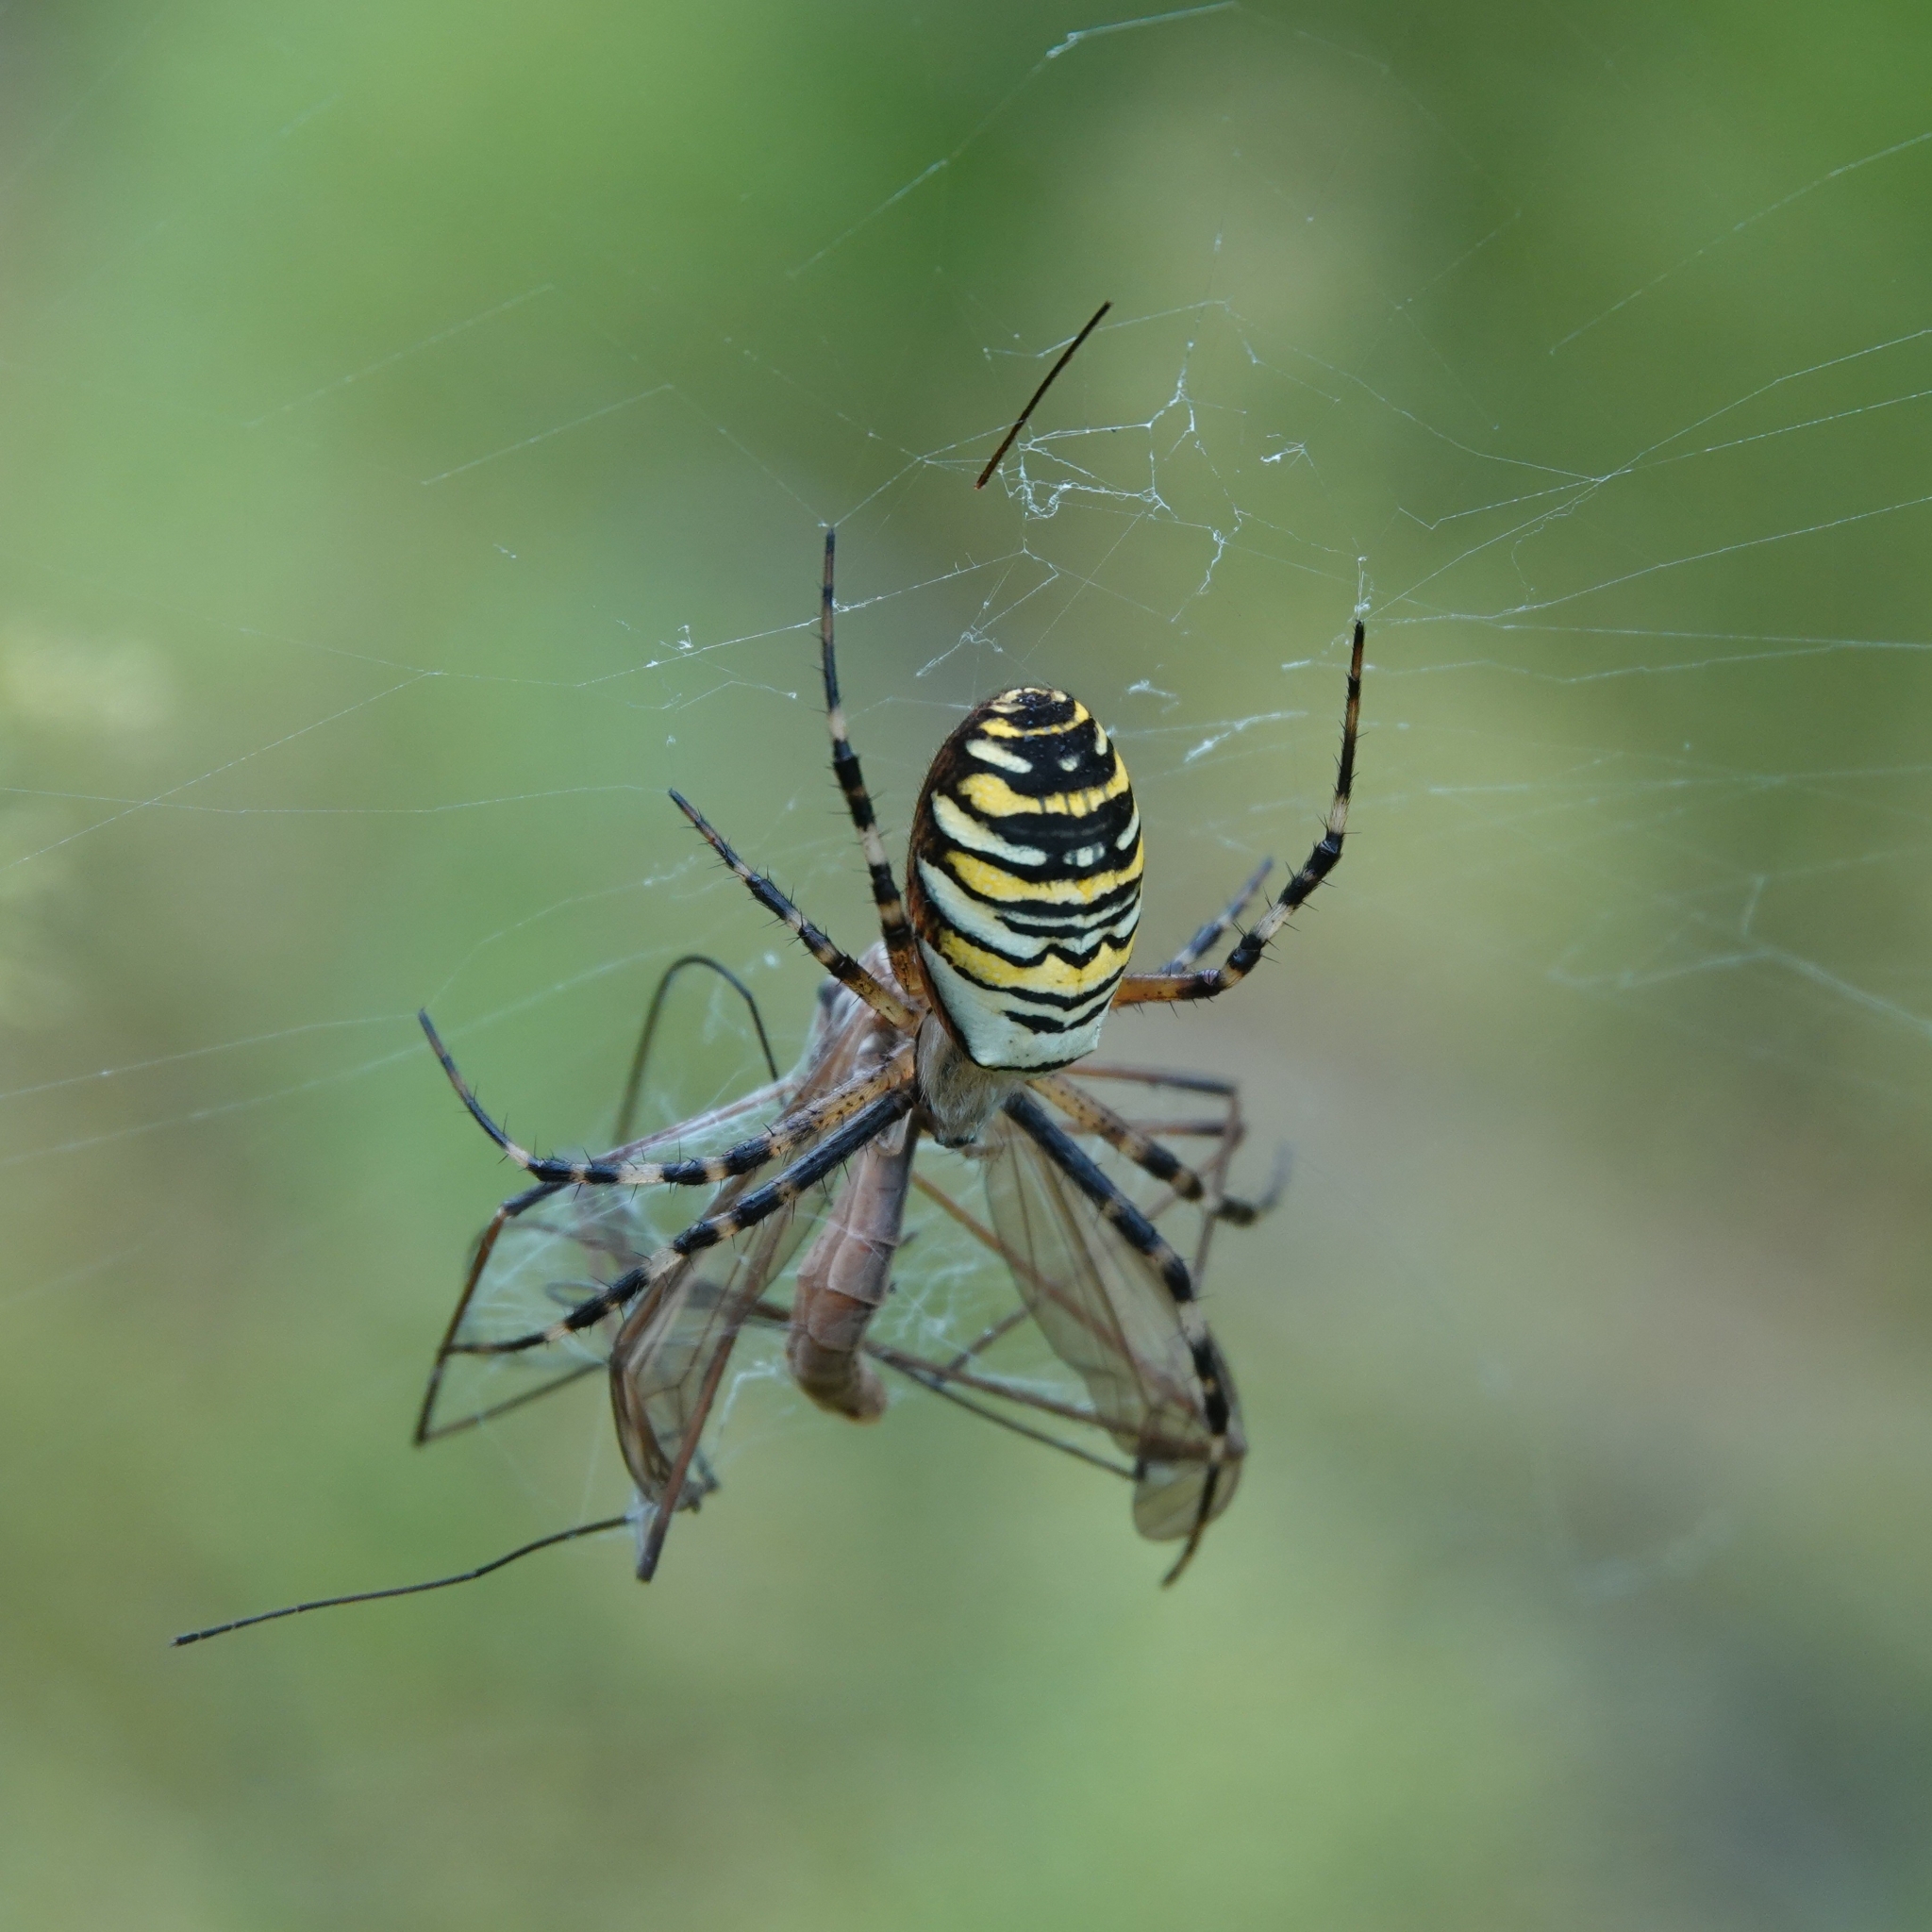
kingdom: Animalia
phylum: Arthropoda
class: Arachnida
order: Araneae
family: Araneidae
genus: Argiope
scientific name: Argiope bruennichi
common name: Wasp spider
